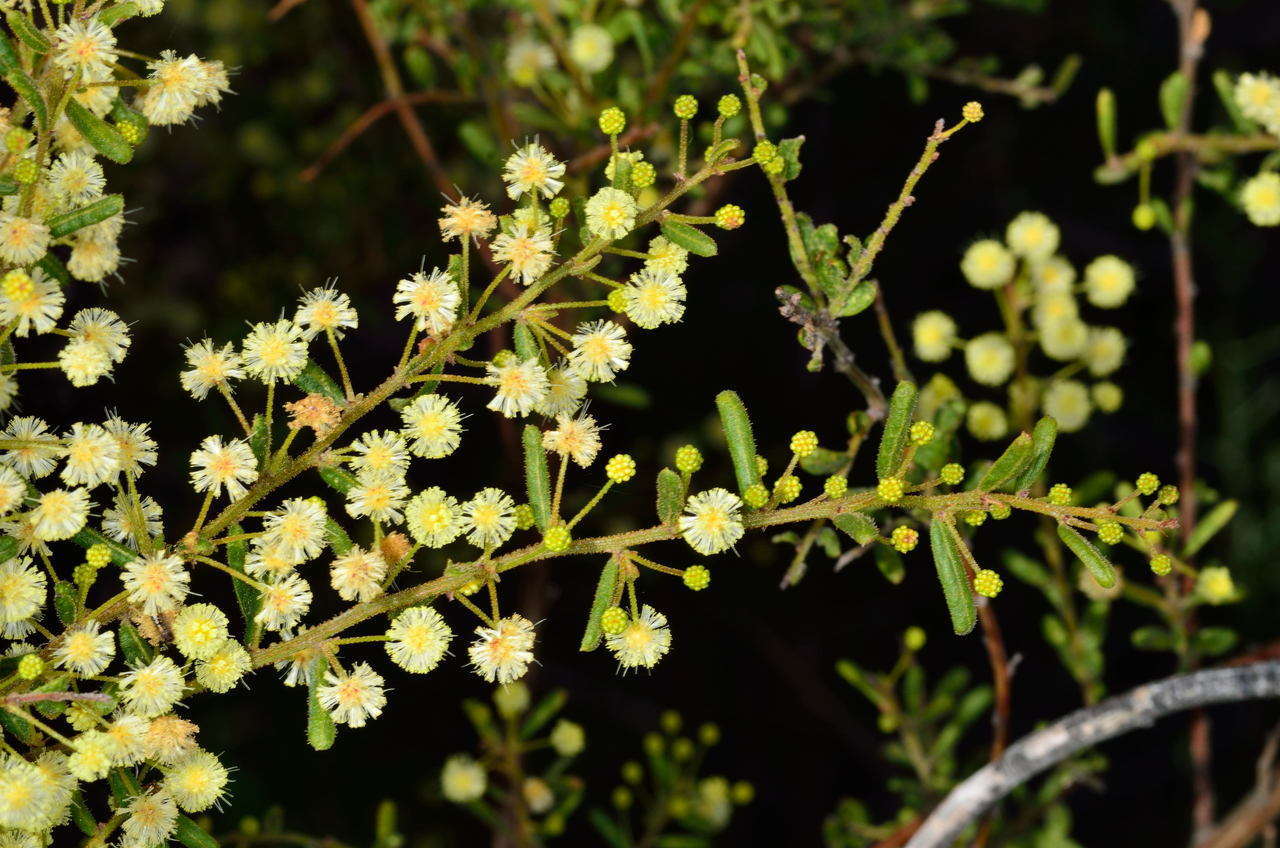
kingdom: Plantae
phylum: Tracheophyta
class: Magnoliopsida
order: Fabales
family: Fabaceae
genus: Acacia
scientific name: Acacia aspera
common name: Rough wattle
